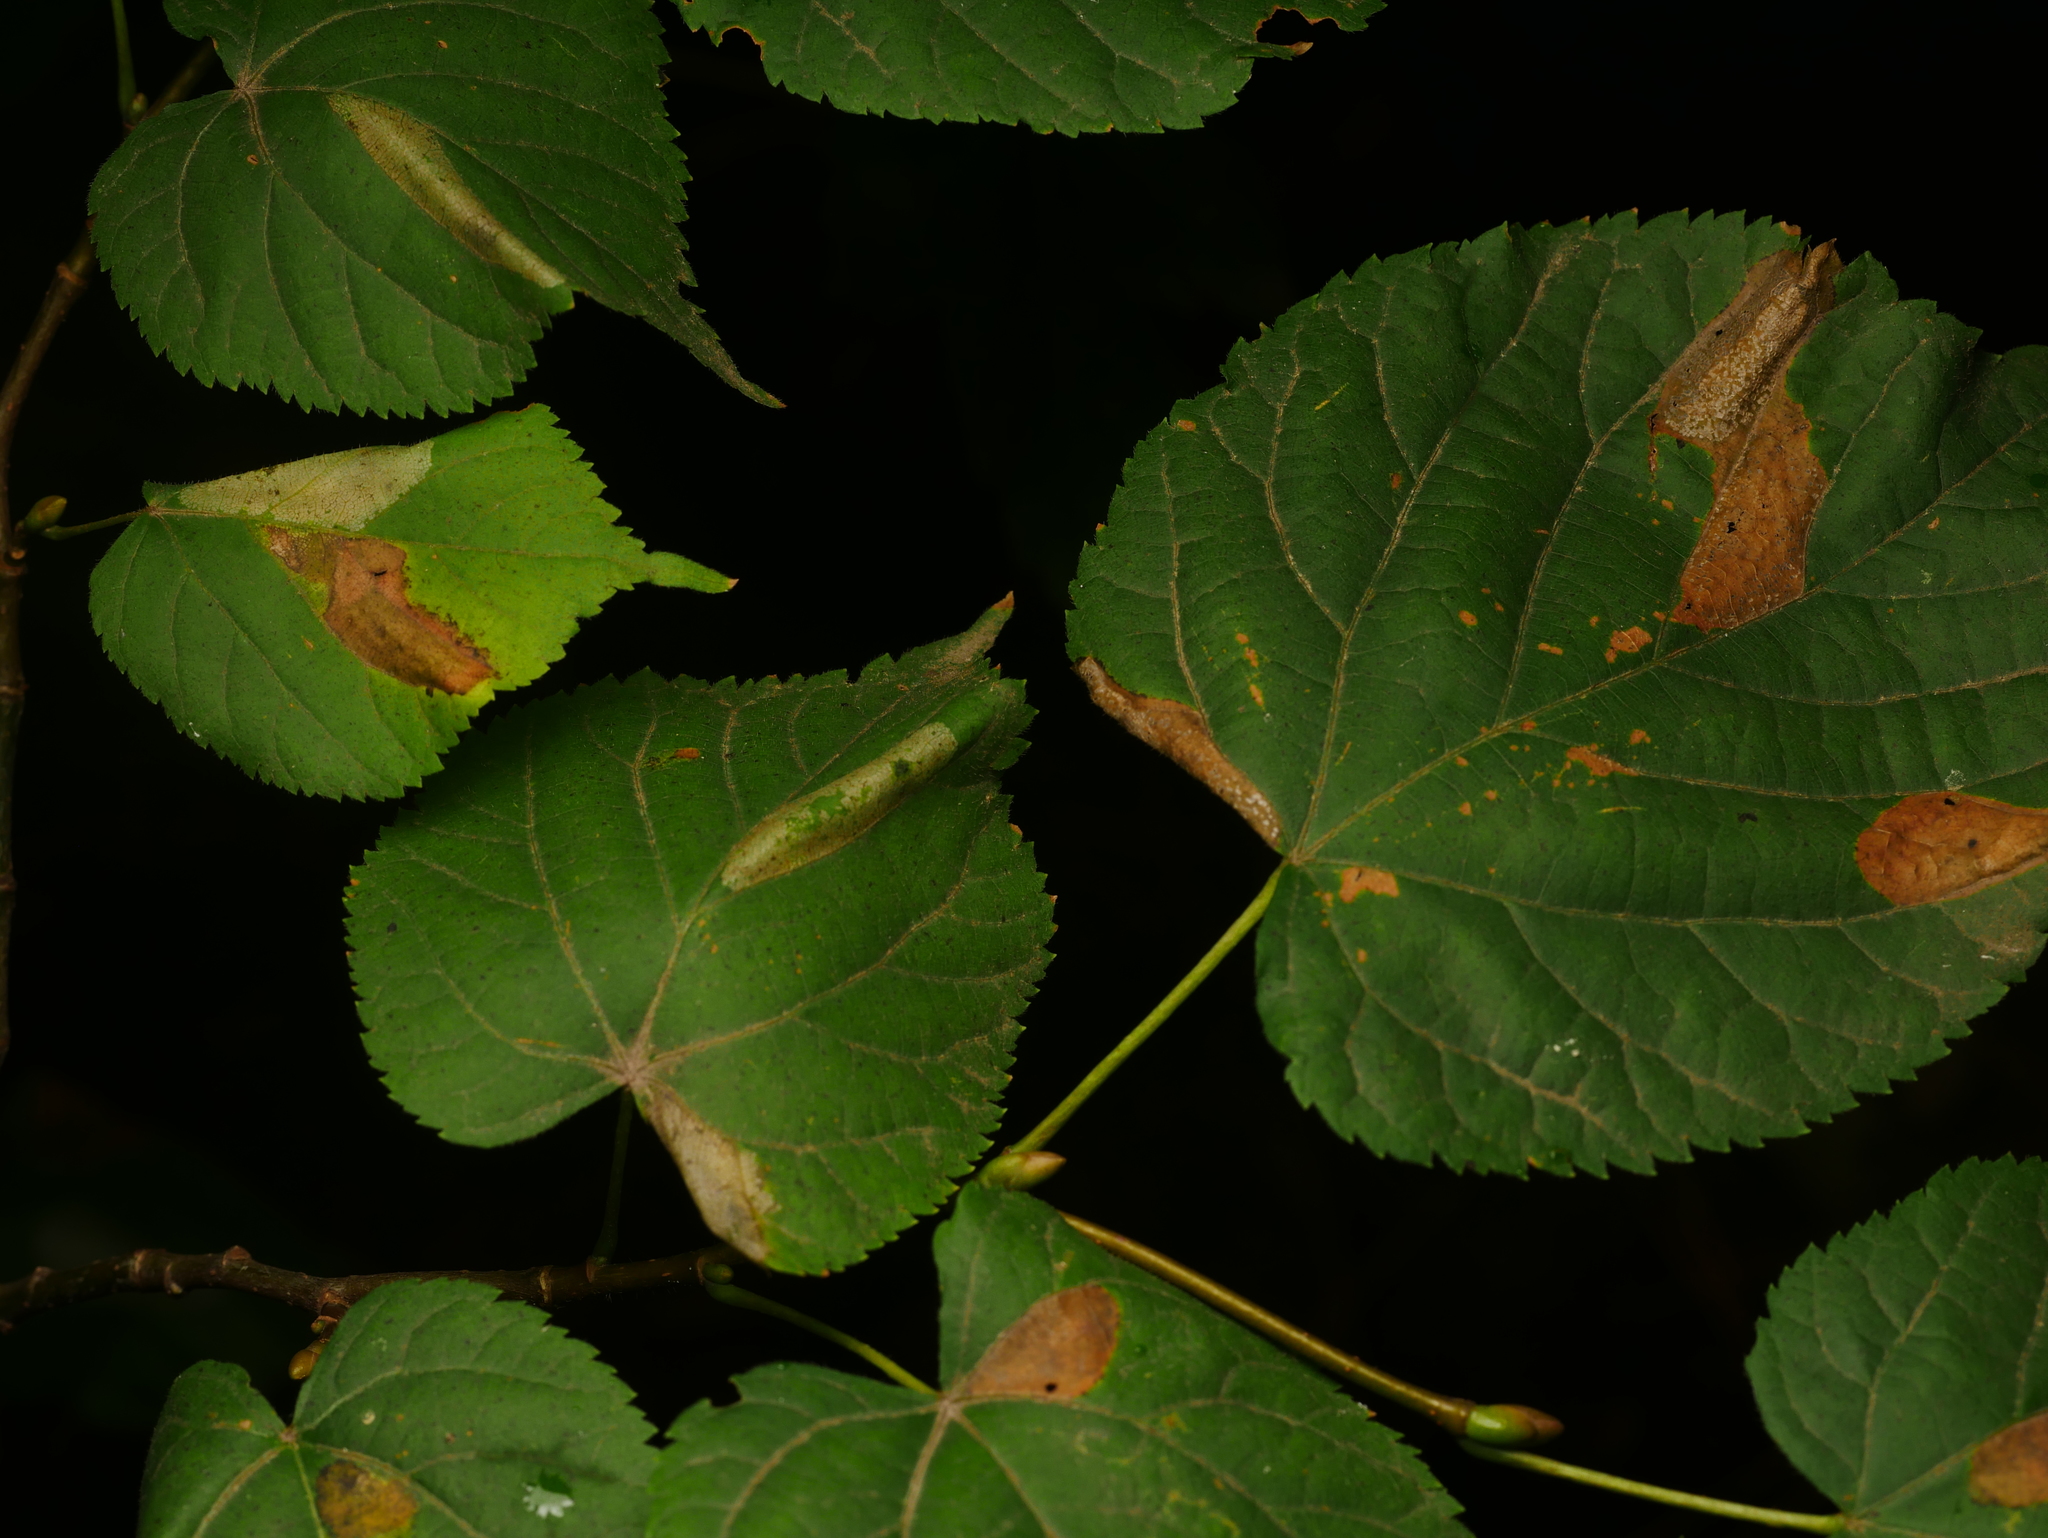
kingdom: Animalia
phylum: Arthropoda
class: Insecta
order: Lepidoptera
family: Gracillariidae
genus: Phyllonorycter
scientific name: Phyllonorycter issikii
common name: Linden midget
